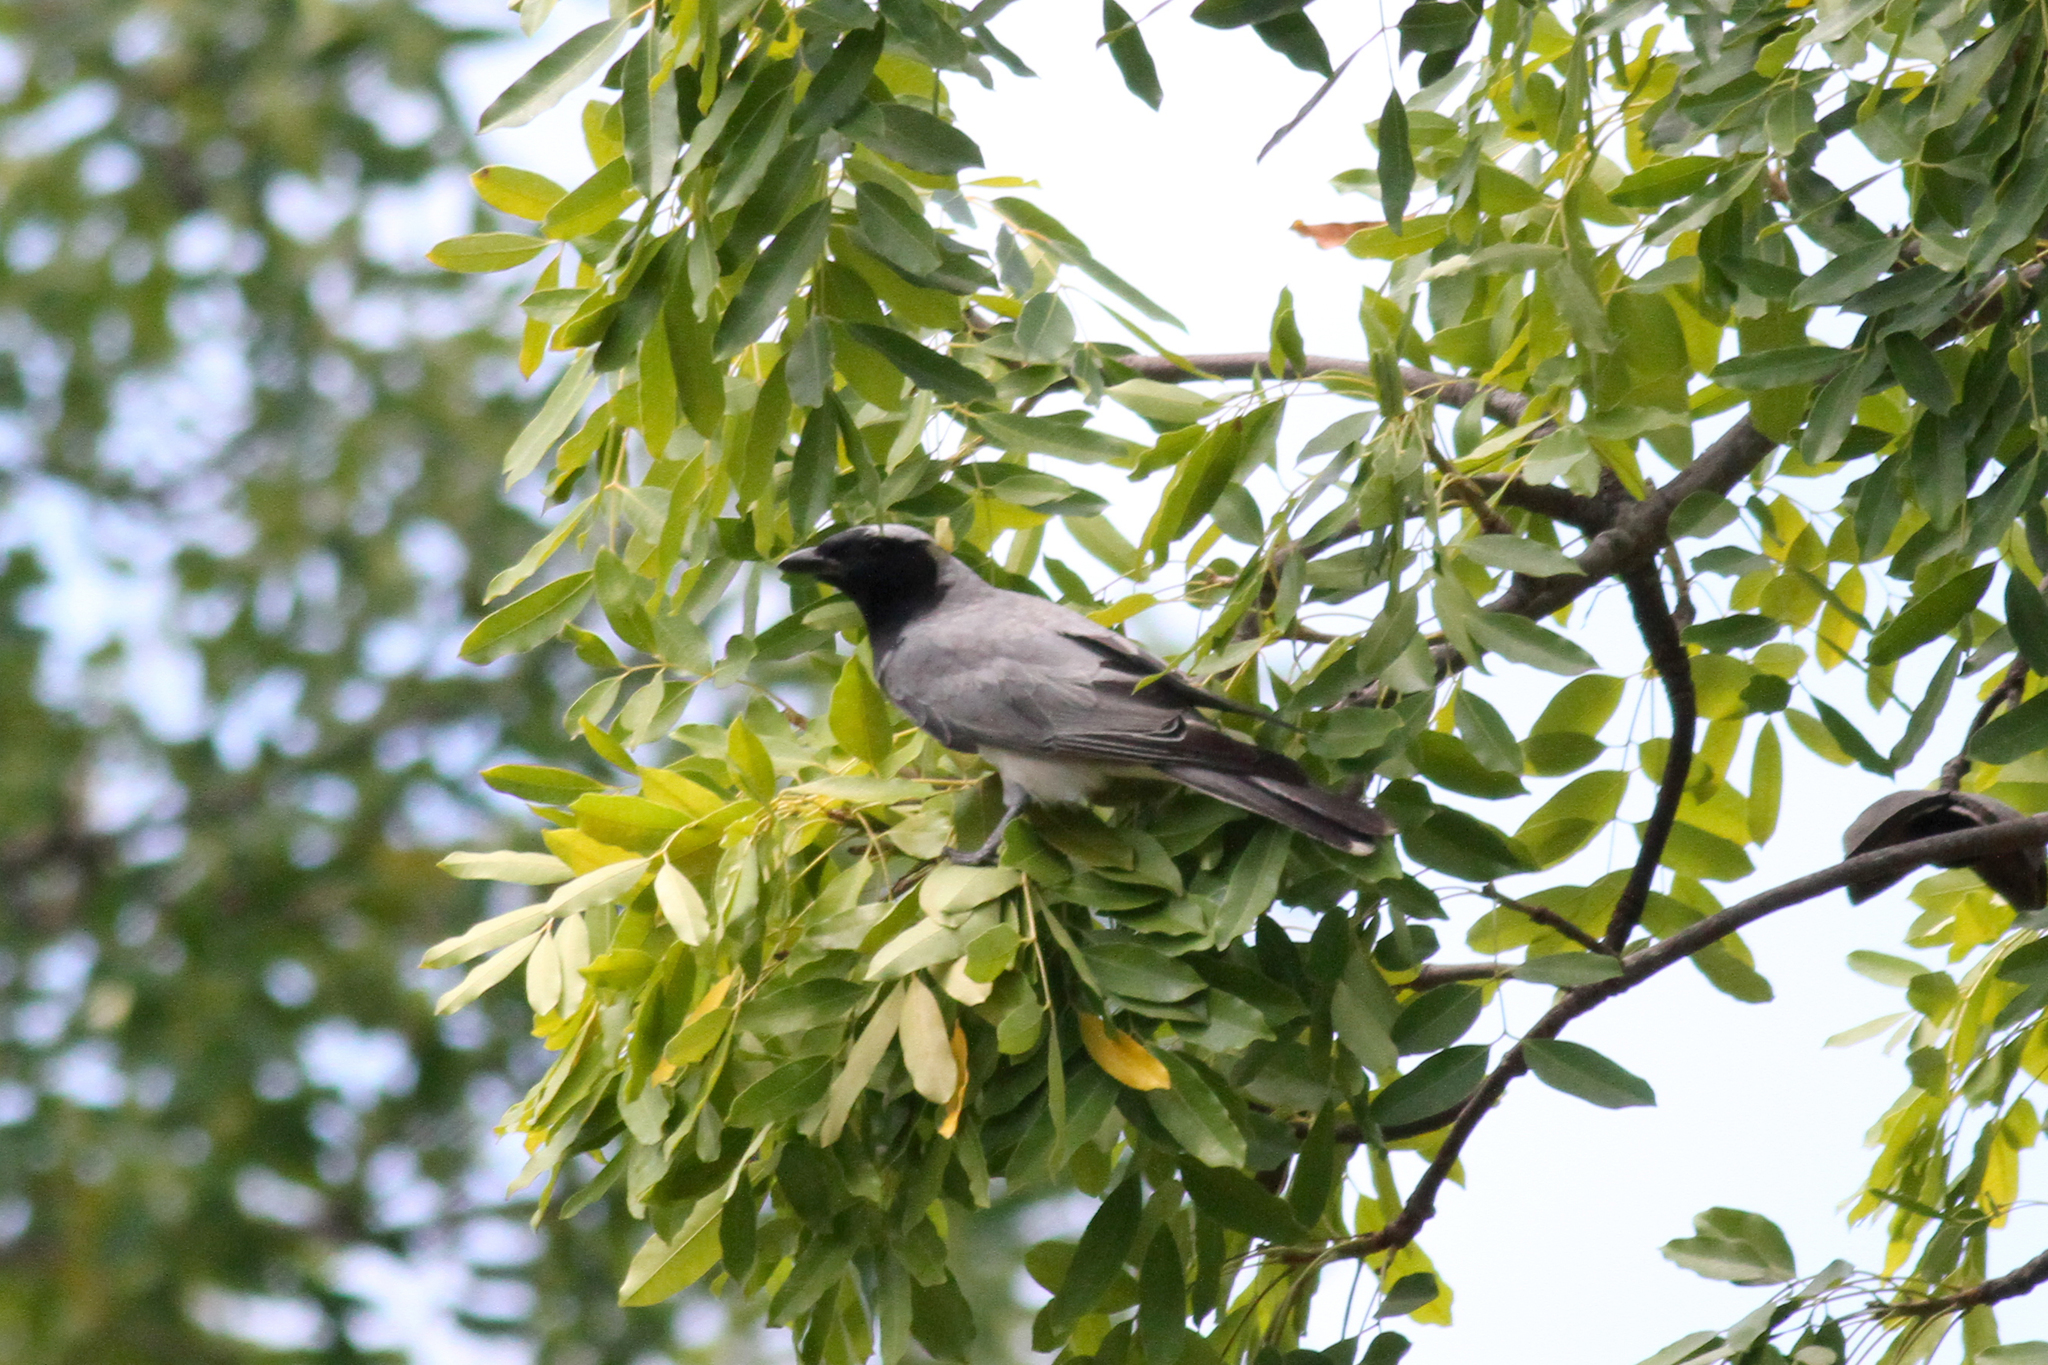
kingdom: Animalia
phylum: Chordata
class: Aves
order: Passeriformes
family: Campephagidae
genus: Coracina
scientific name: Coracina novaehollandiae
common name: Black-faced cuckooshrike
